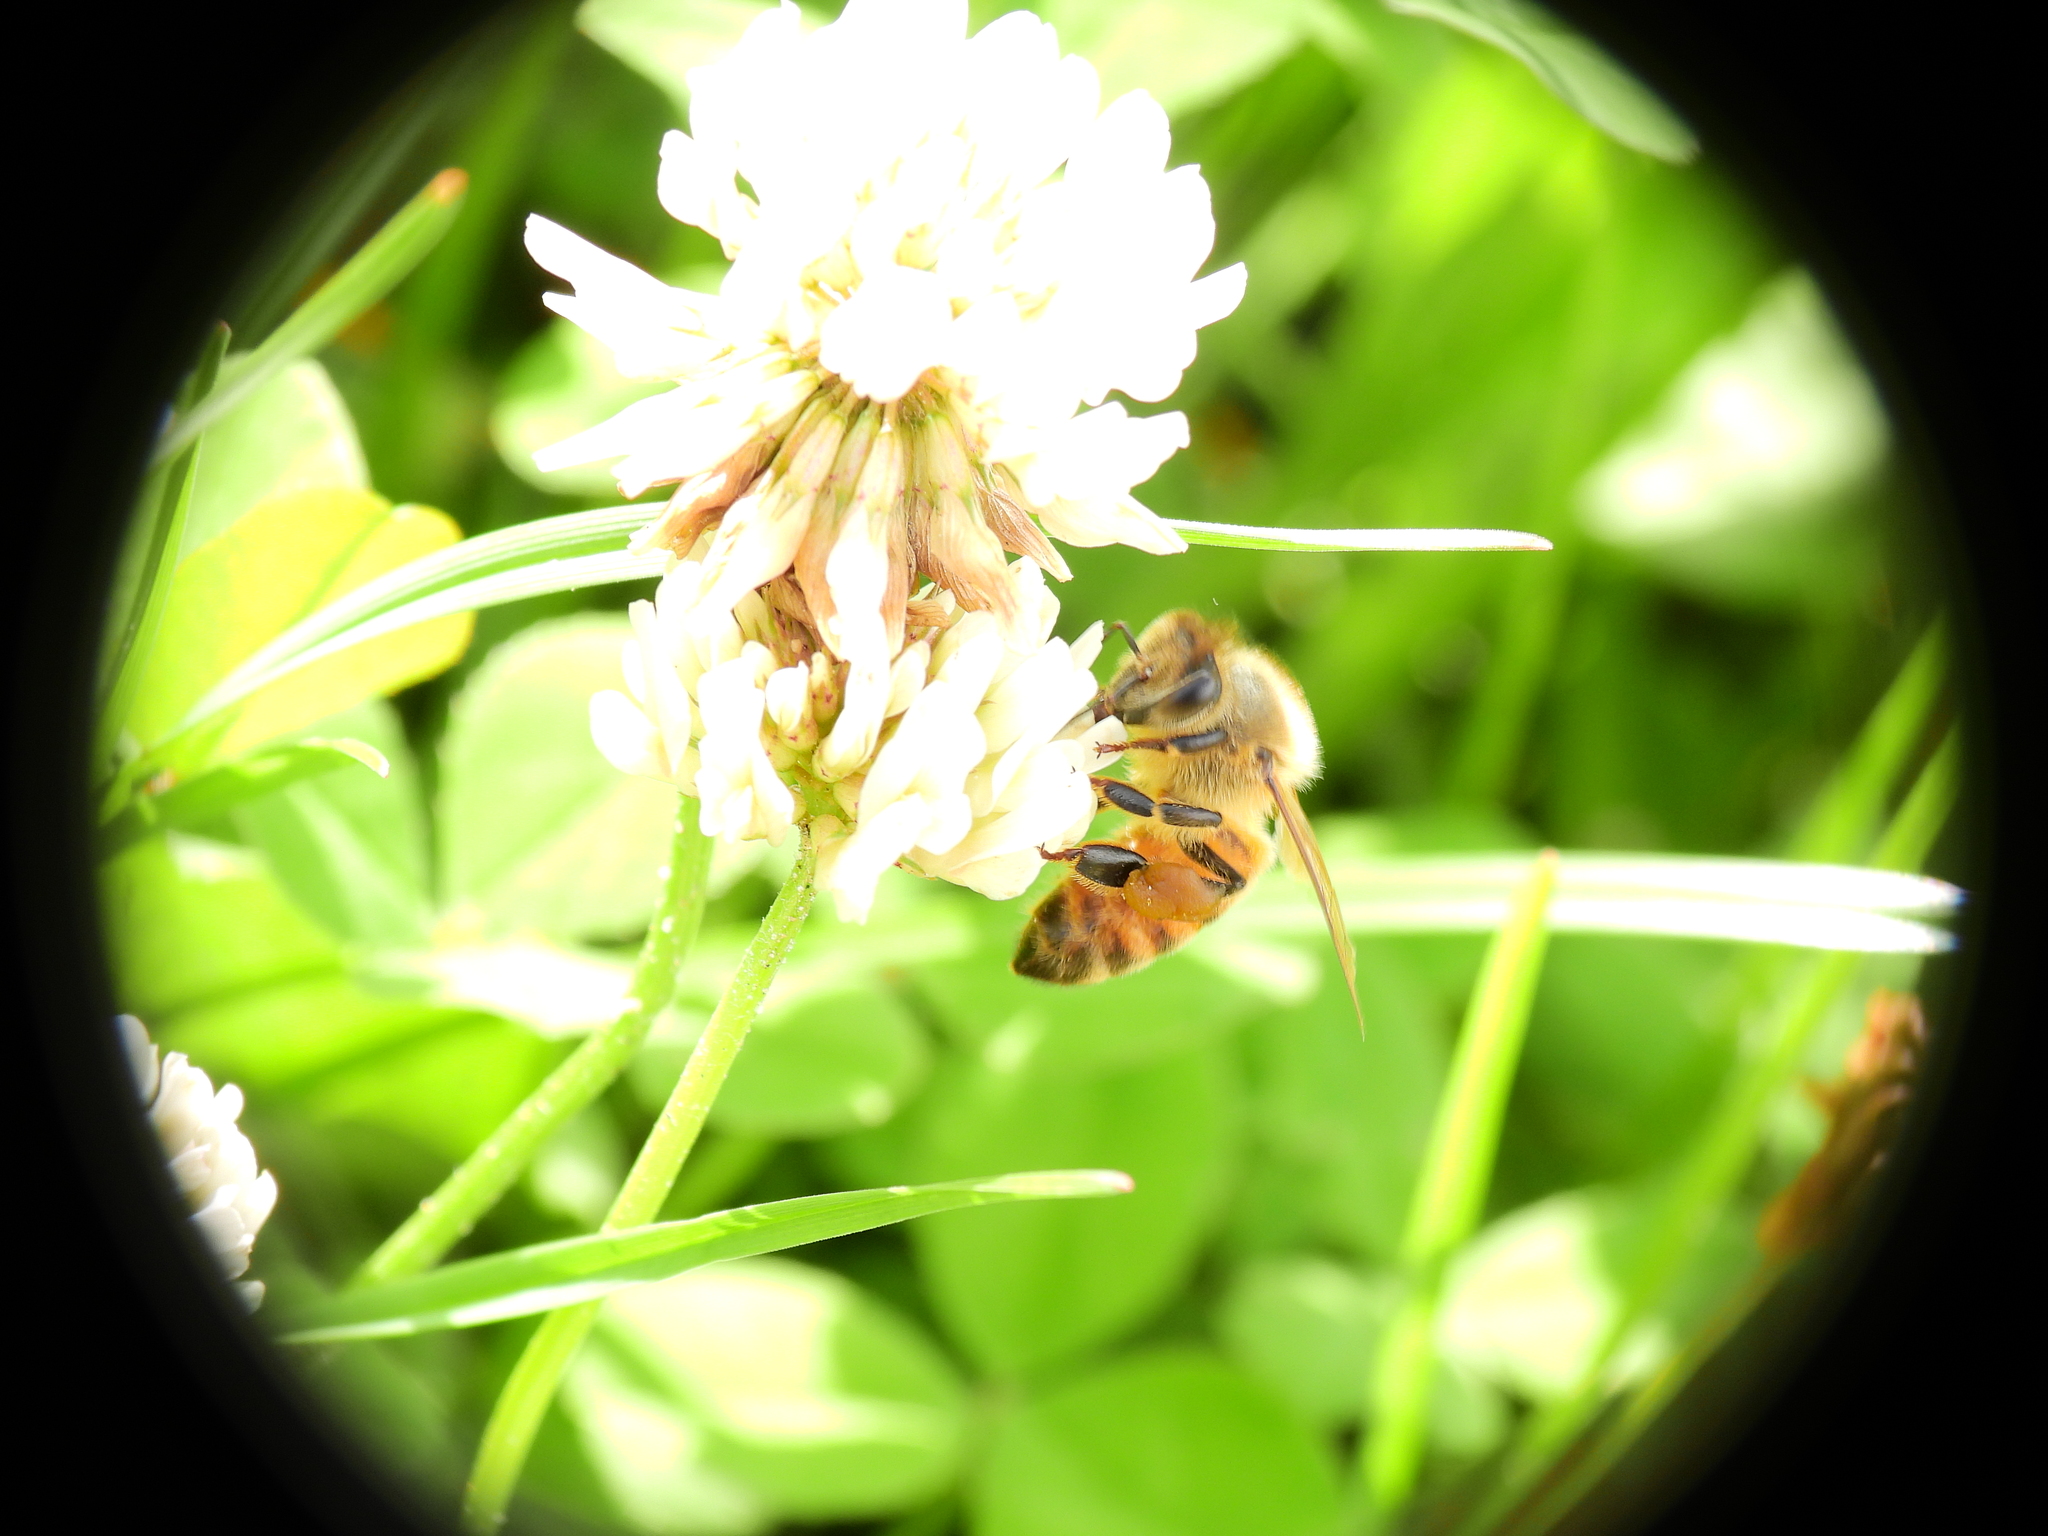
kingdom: Animalia
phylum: Arthropoda
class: Insecta
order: Hymenoptera
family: Apidae
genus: Apis
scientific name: Apis mellifera
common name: Honey bee
